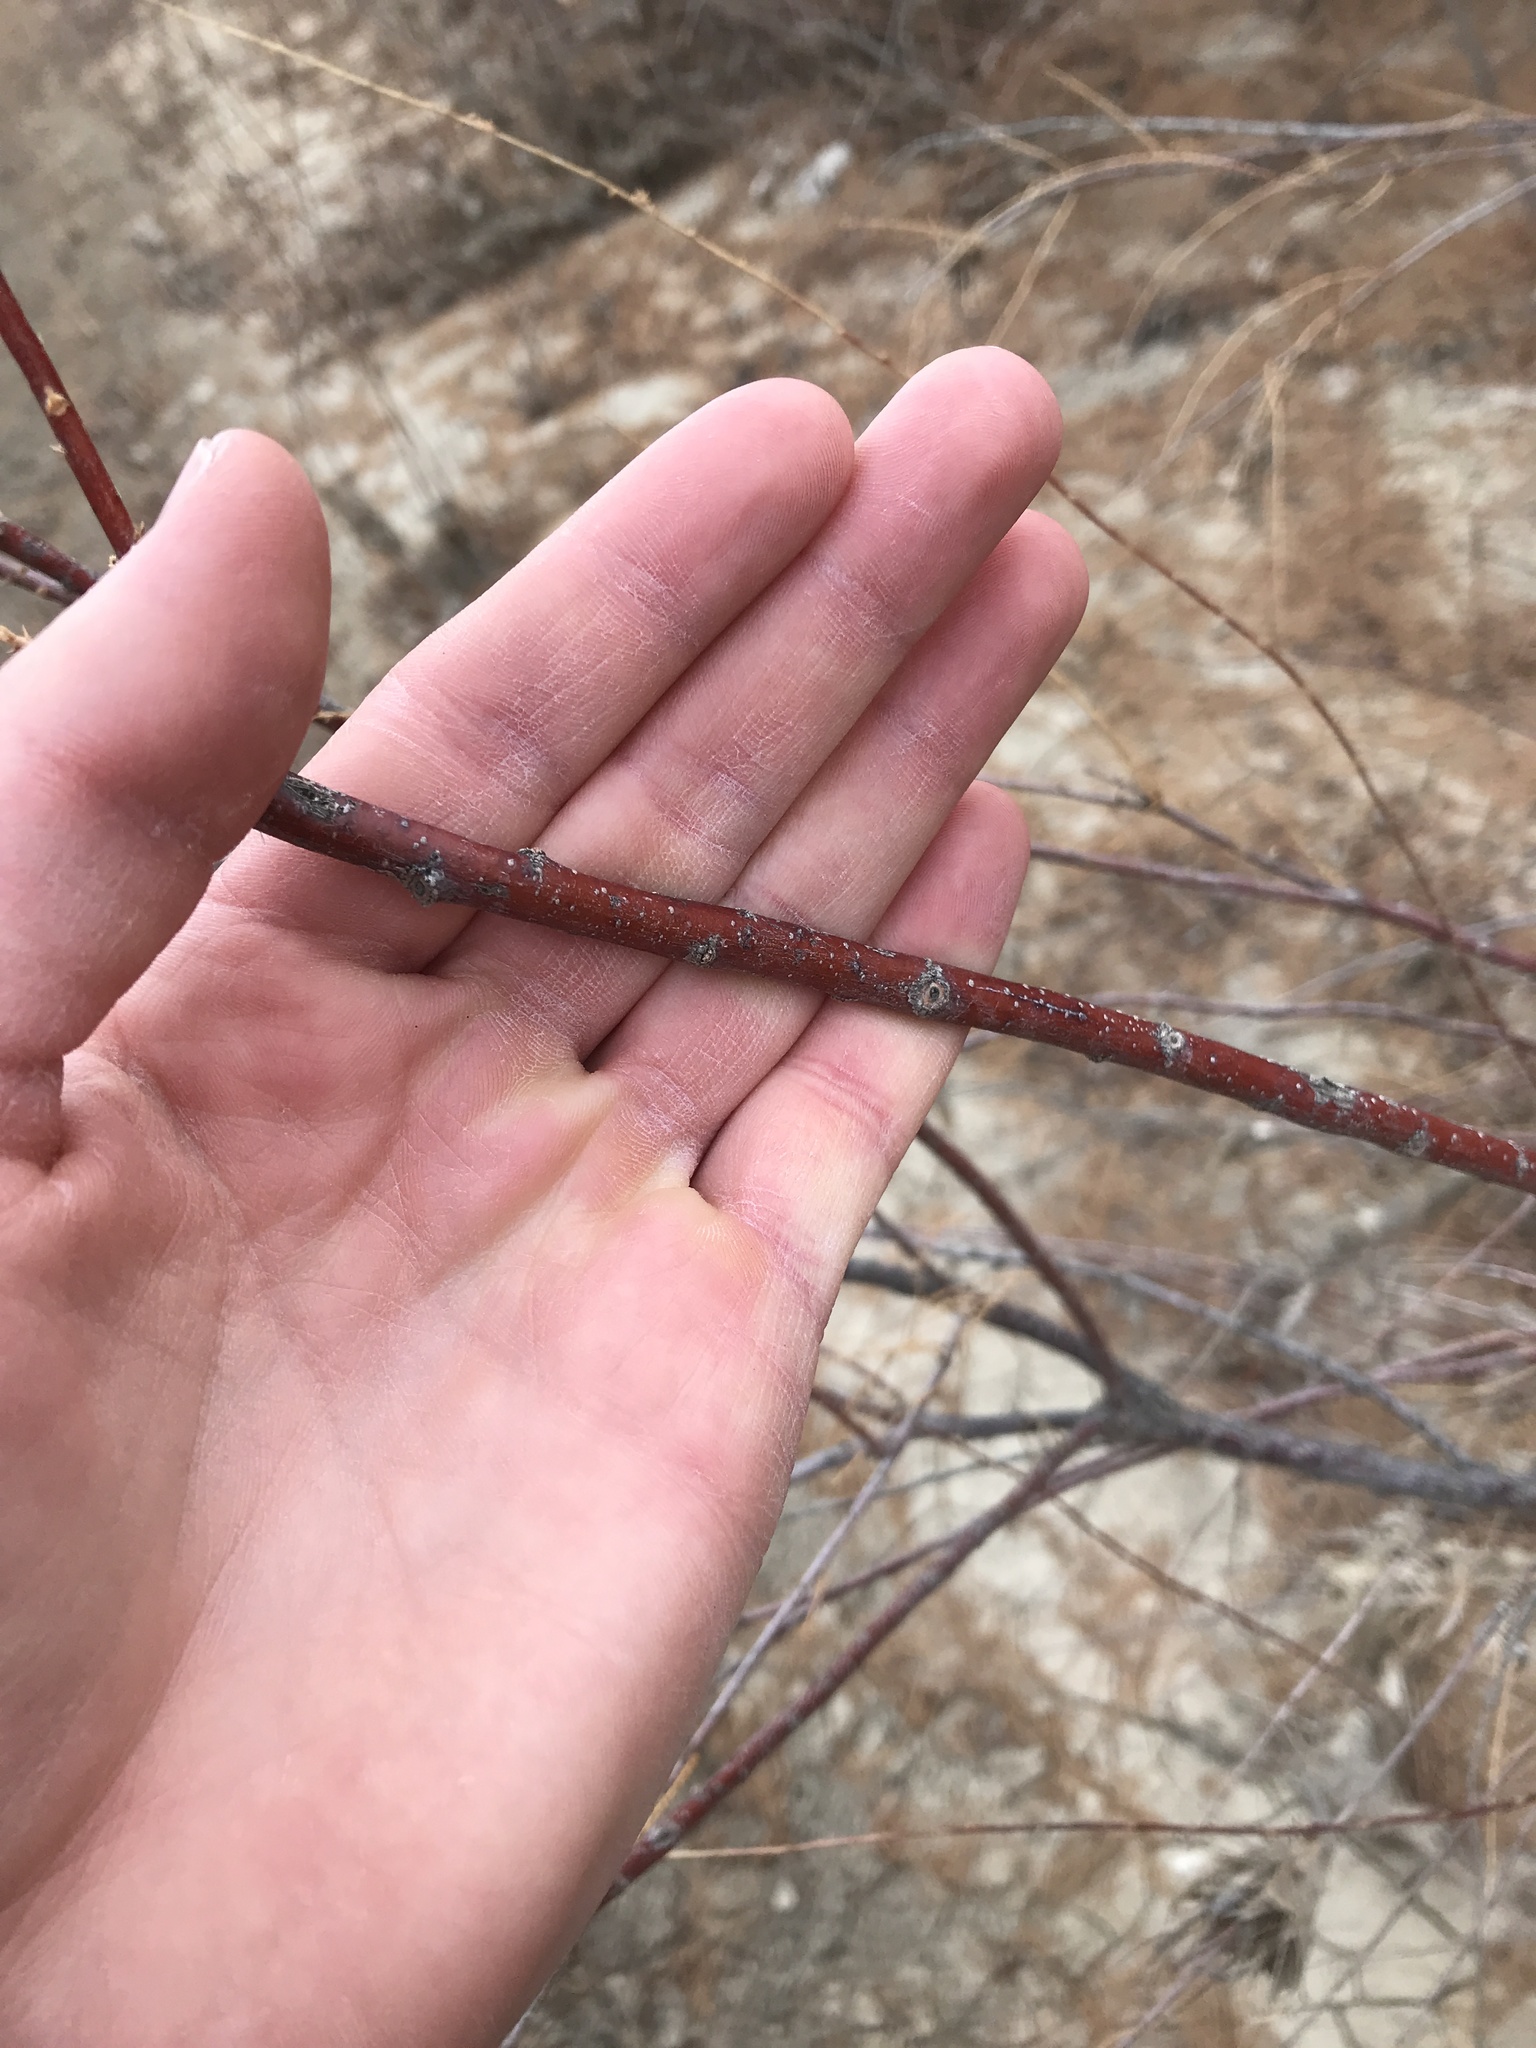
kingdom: Plantae
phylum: Tracheophyta
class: Magnoliopsida
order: Caryophyllales
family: Tamaricaceae
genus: Tamarix
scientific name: Tamarix
